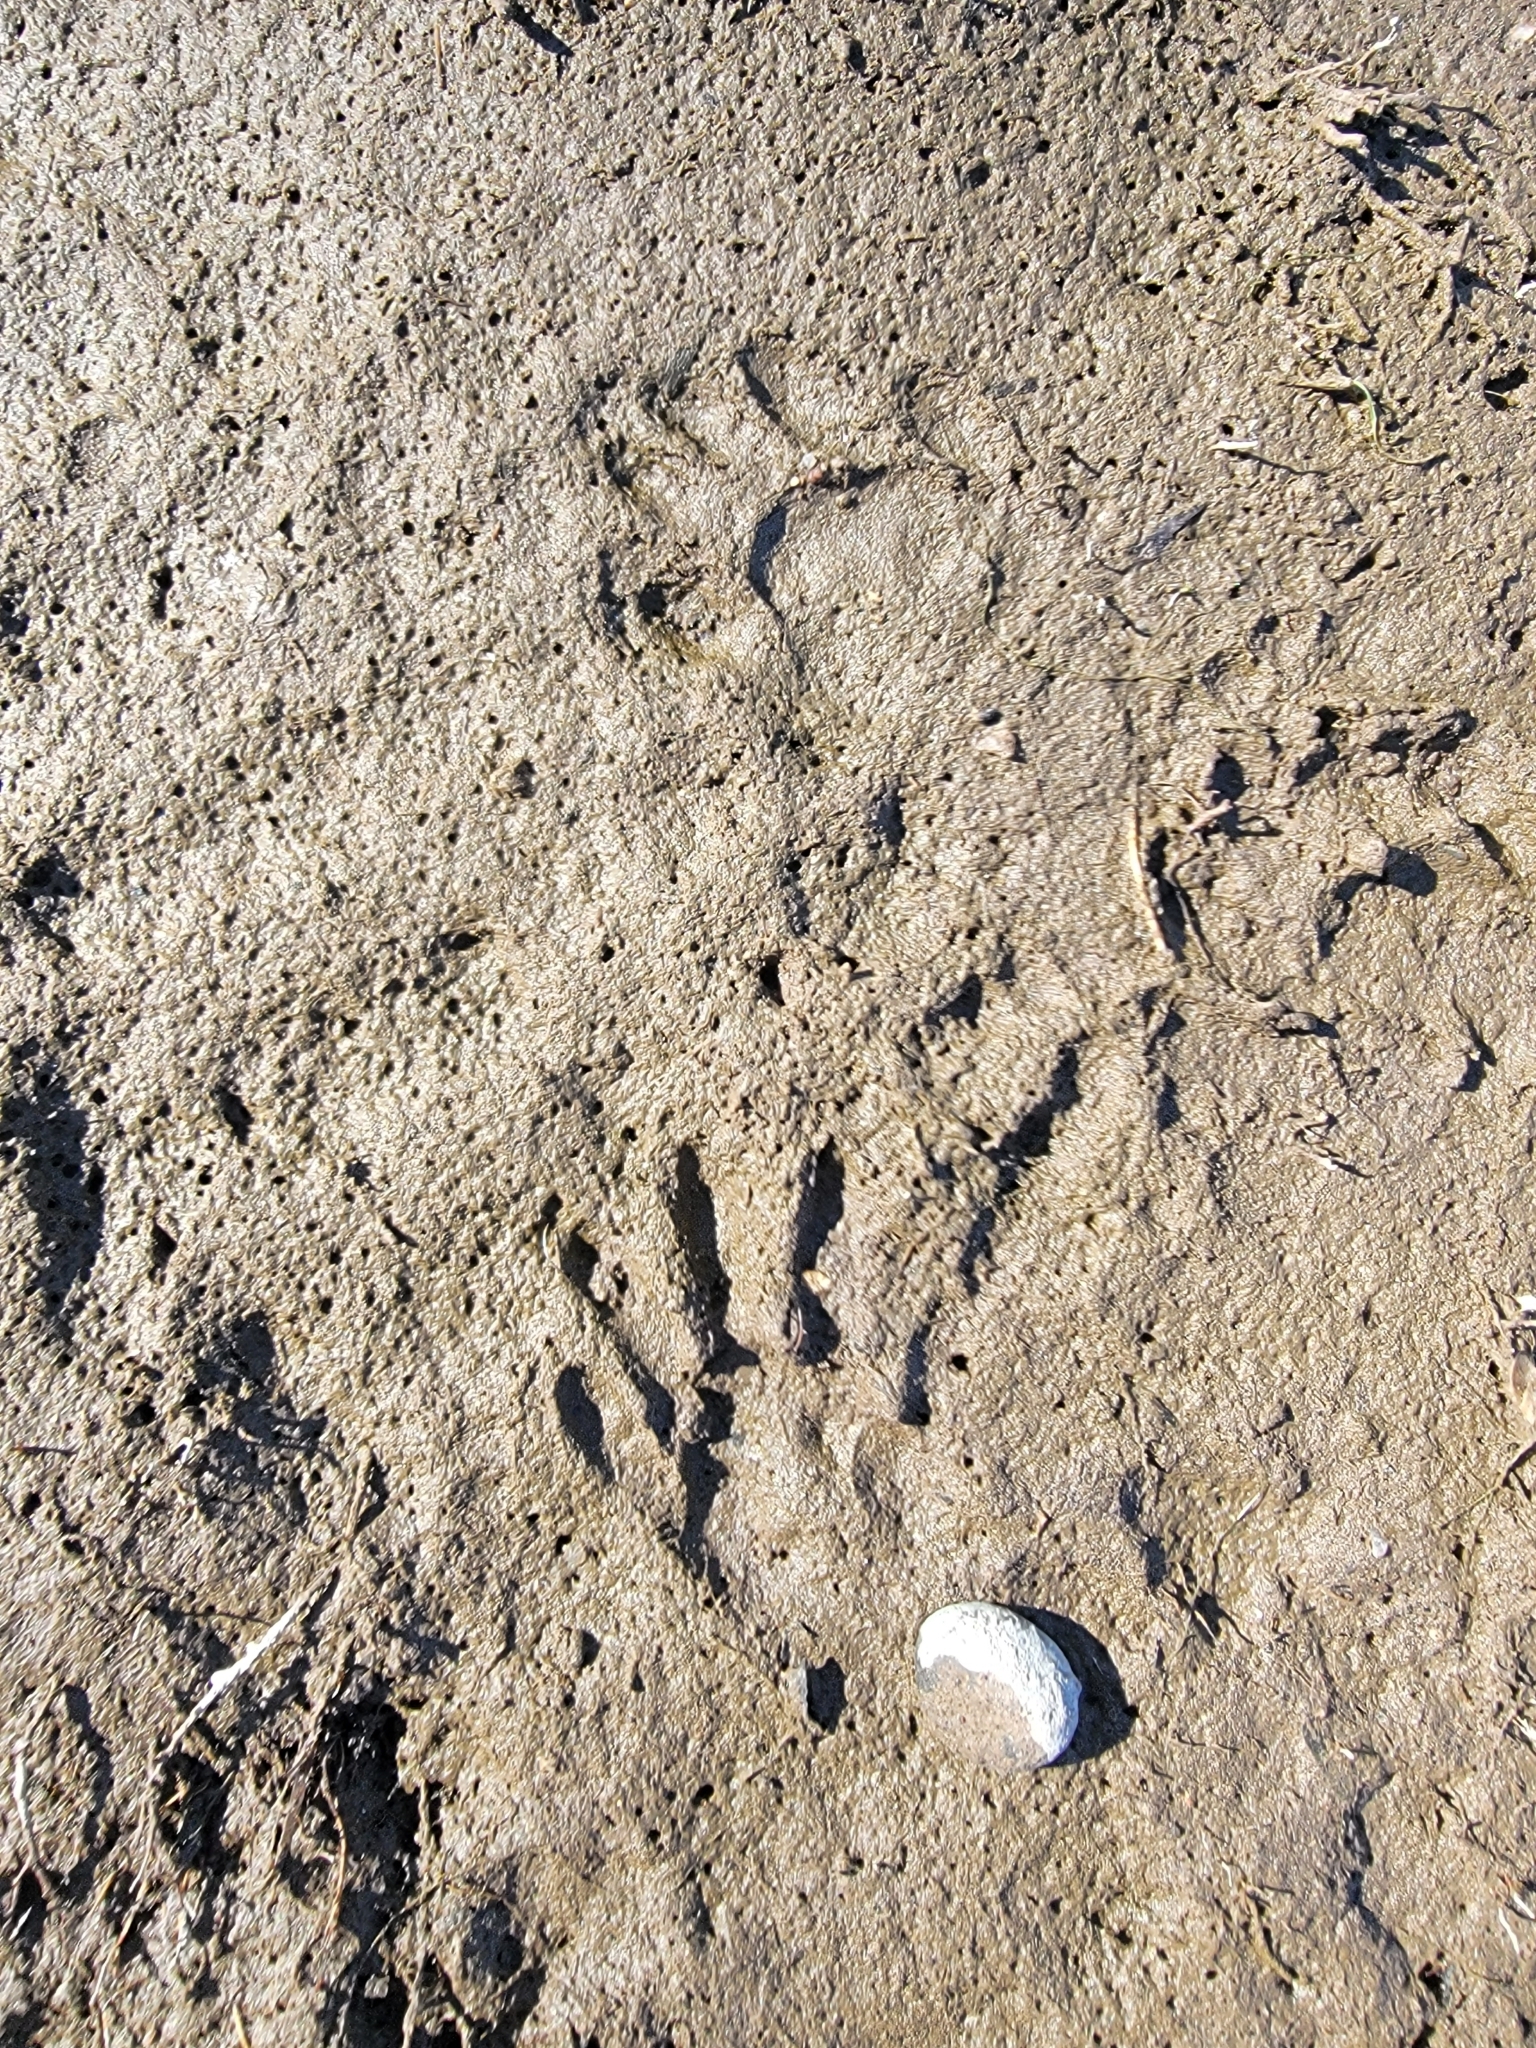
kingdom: Animalia
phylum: Chordata
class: Mammalia
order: Carnivora
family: Procyonidae
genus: Procyon
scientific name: Procyon lotor
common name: Raccoon
